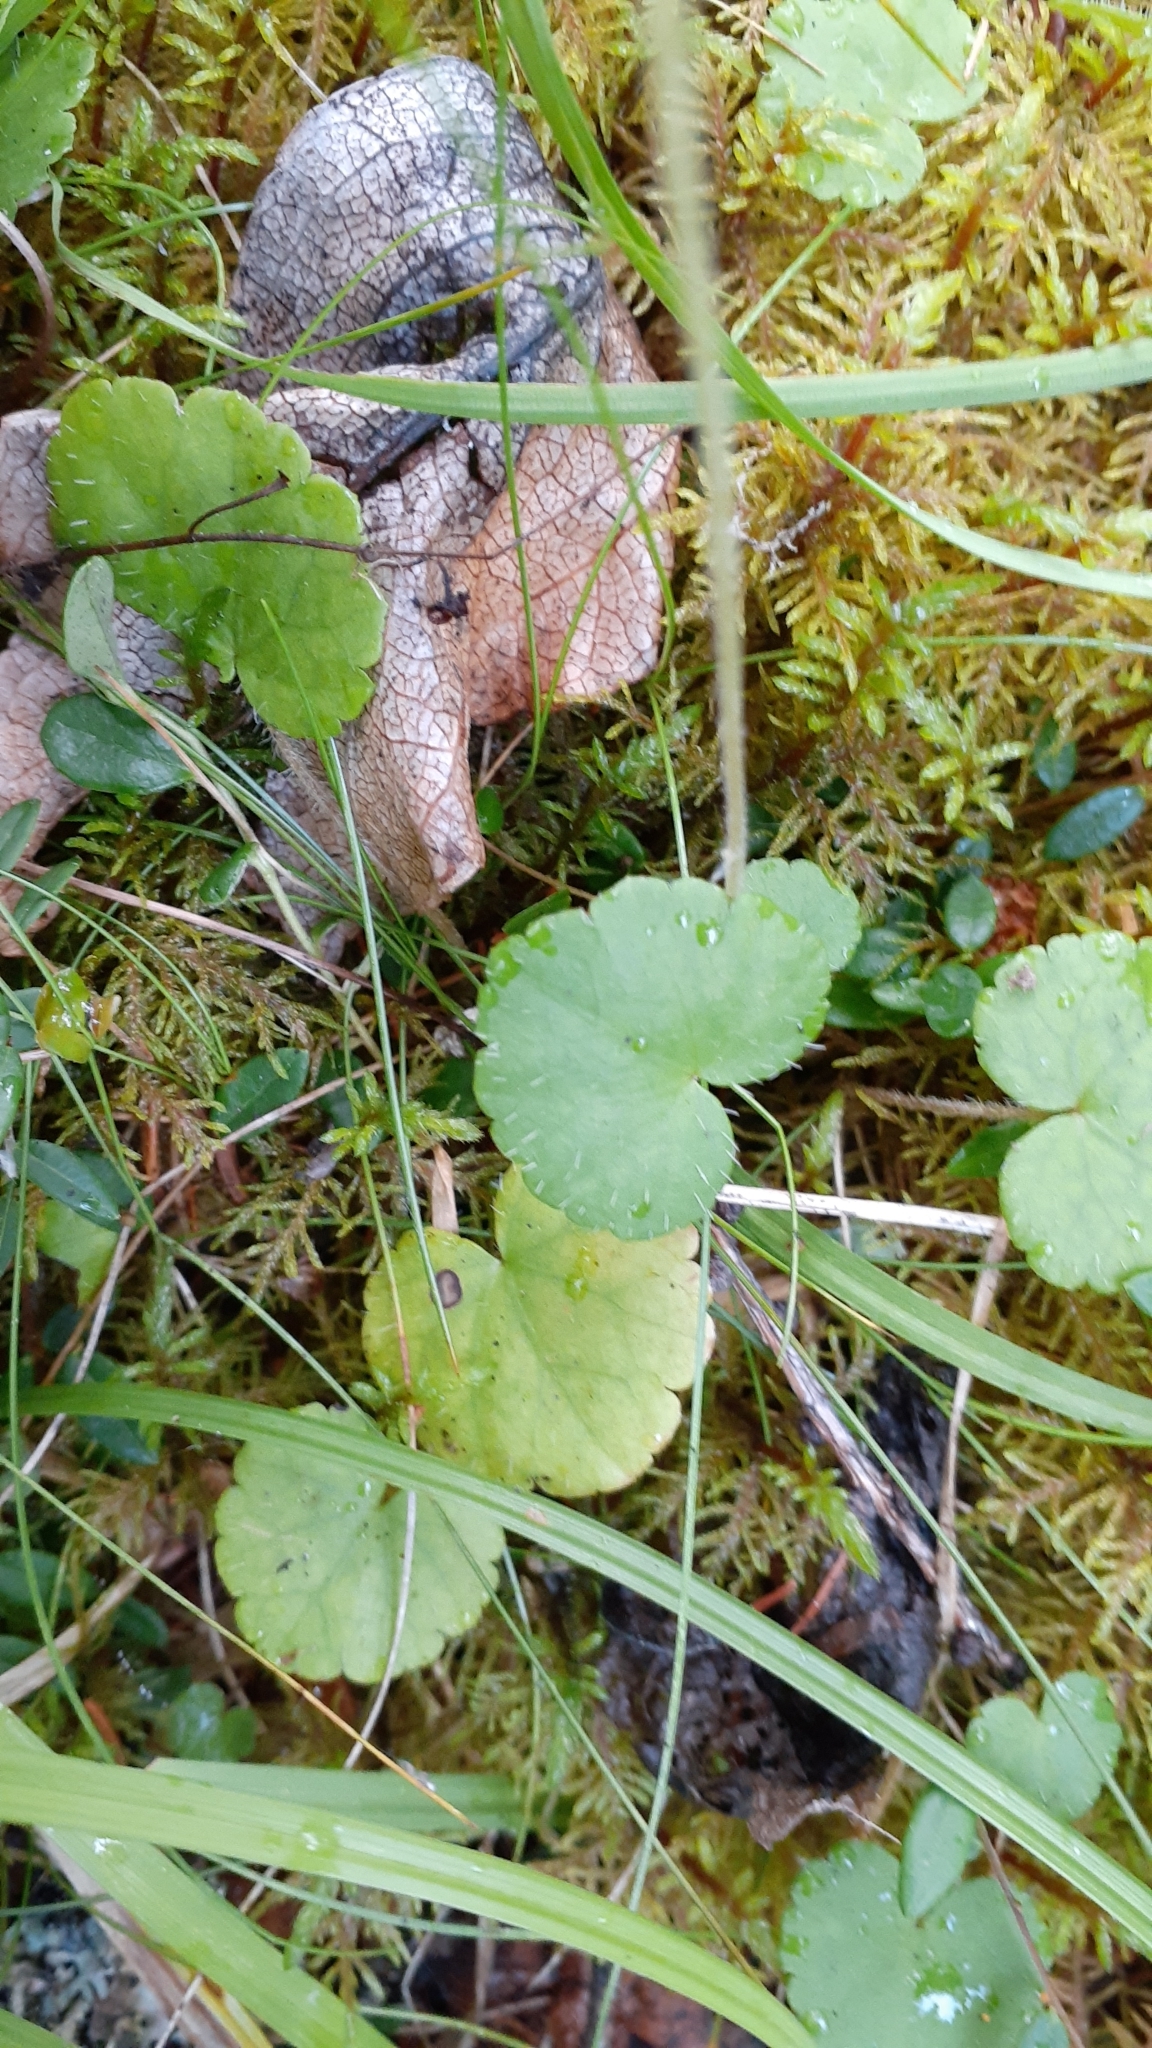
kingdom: Plantae
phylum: Tracheophyta
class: Magnoliopsida
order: Saxifragales
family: Saxifragaceae
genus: Mitella
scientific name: Mitella nuda
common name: Bare-stemmed bishop's-cap
